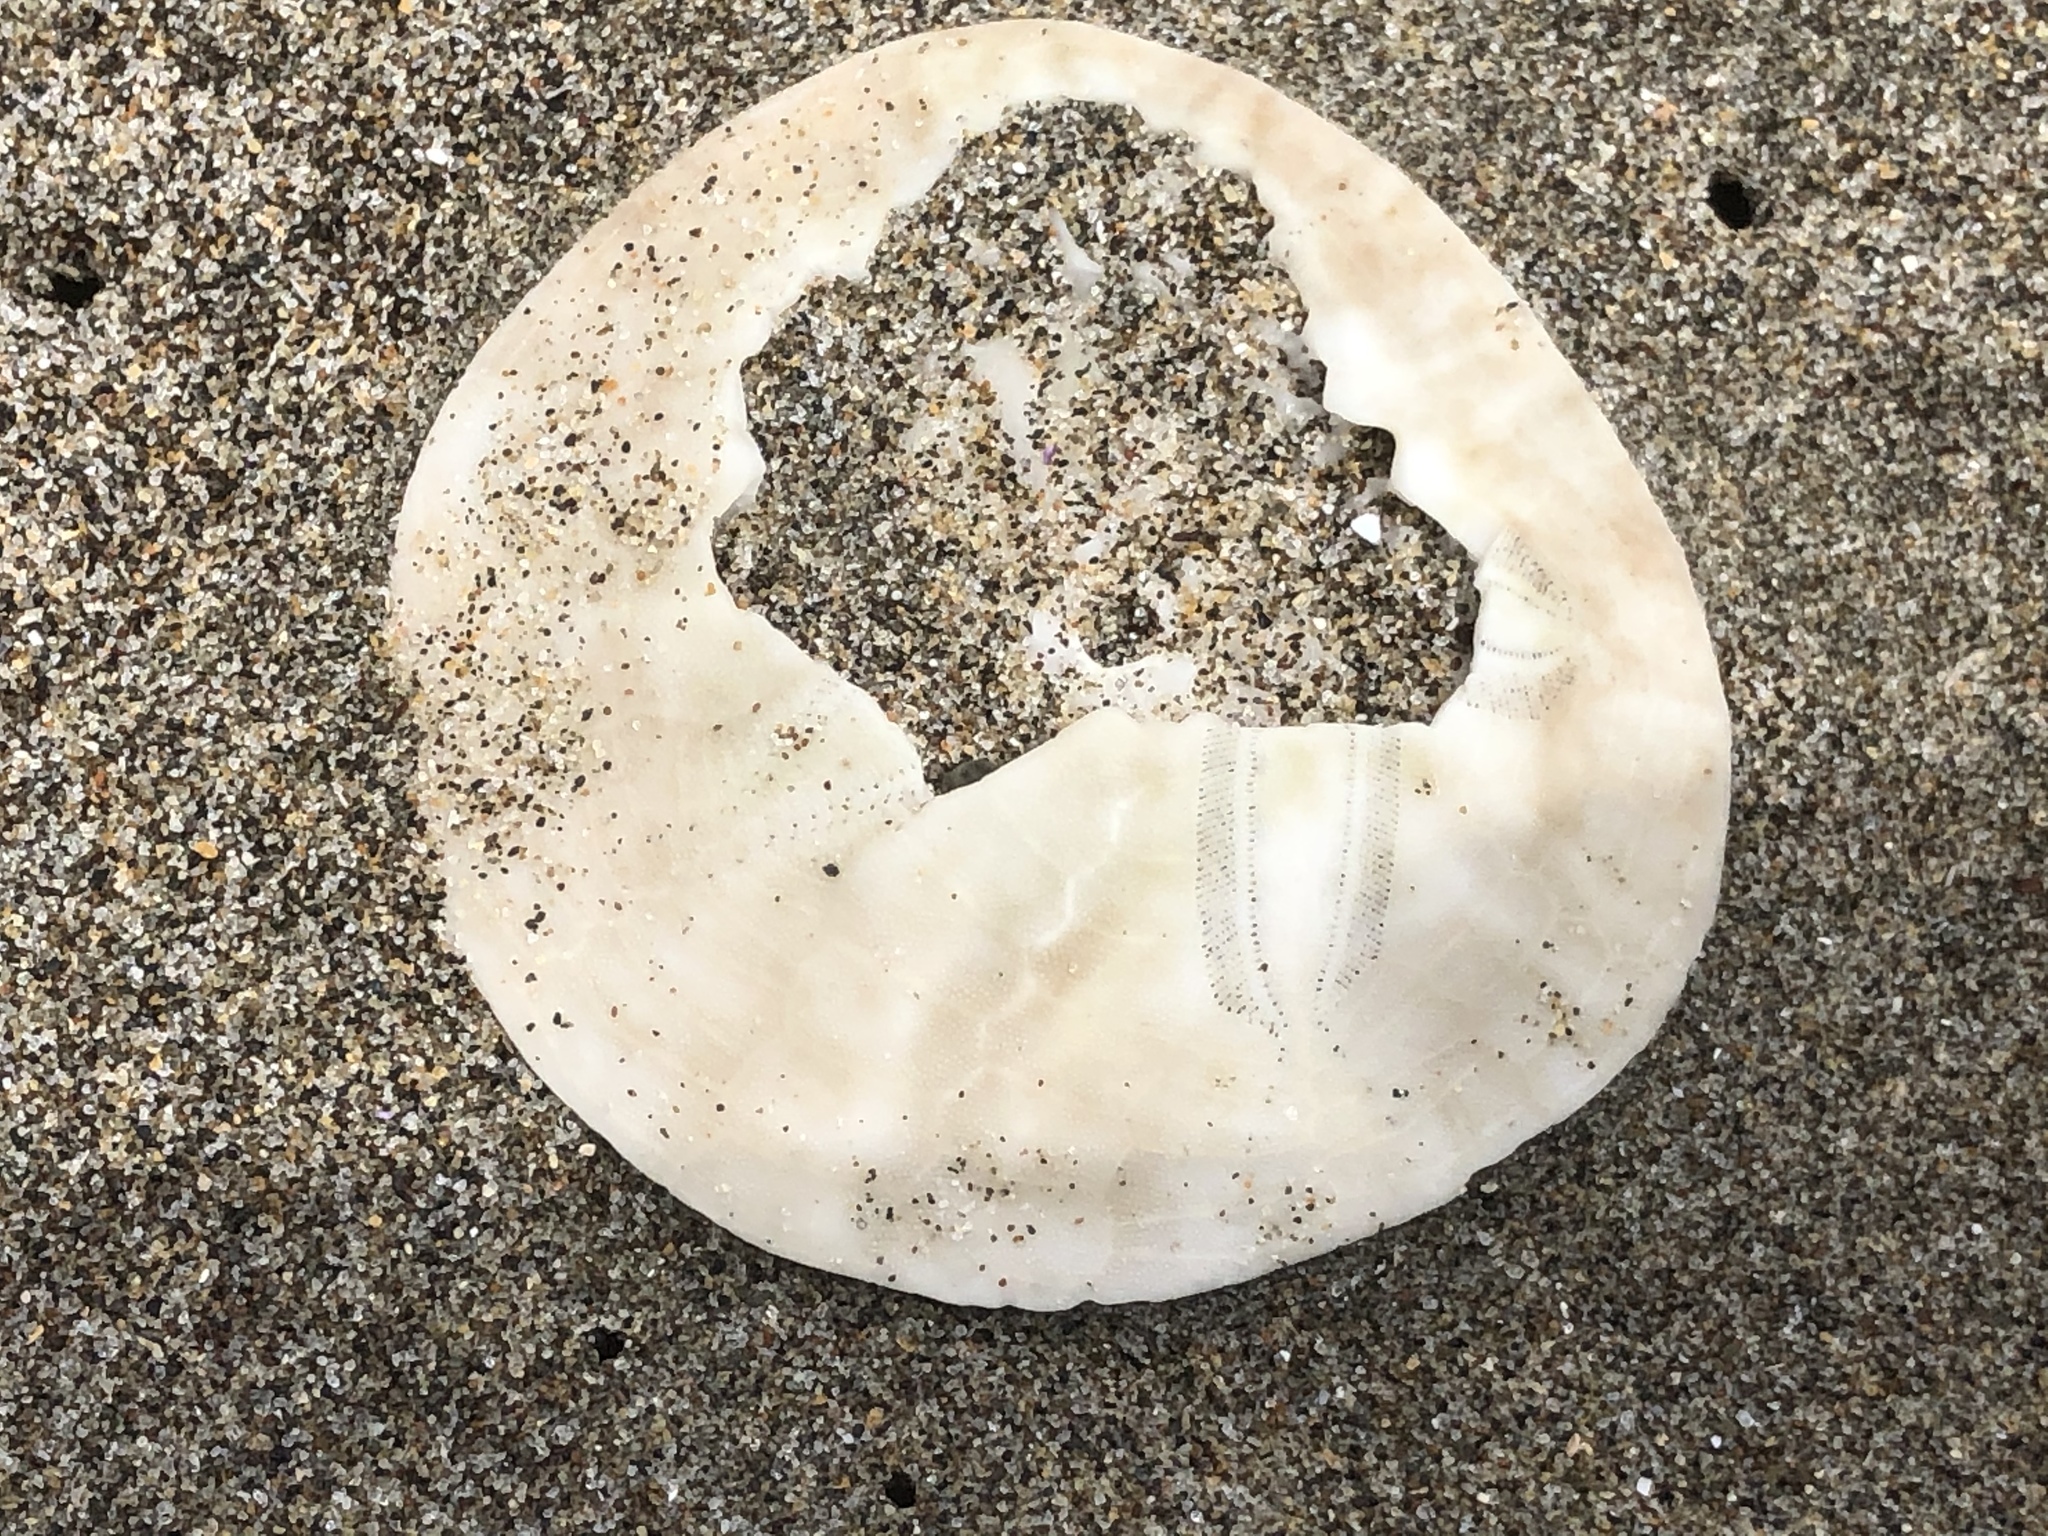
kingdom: Animalia
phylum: Echinodermata
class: Echinoidea
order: Echinolampadacea
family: Dendrasteridae
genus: Dendraster
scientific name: Dendraster excentricus
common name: Eccentric sand dollar sea urchin
